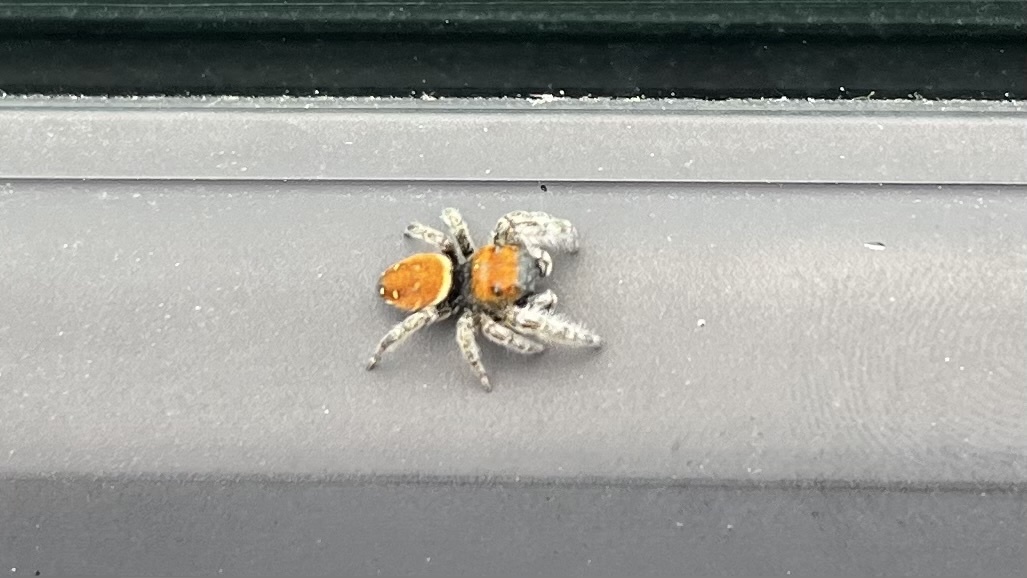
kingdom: Animalia
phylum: Arthropoda
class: Arachnida
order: Araneae
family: Salticidae
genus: Phidippus
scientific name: Phidippus whitmani
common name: Whitman's jumping spider
